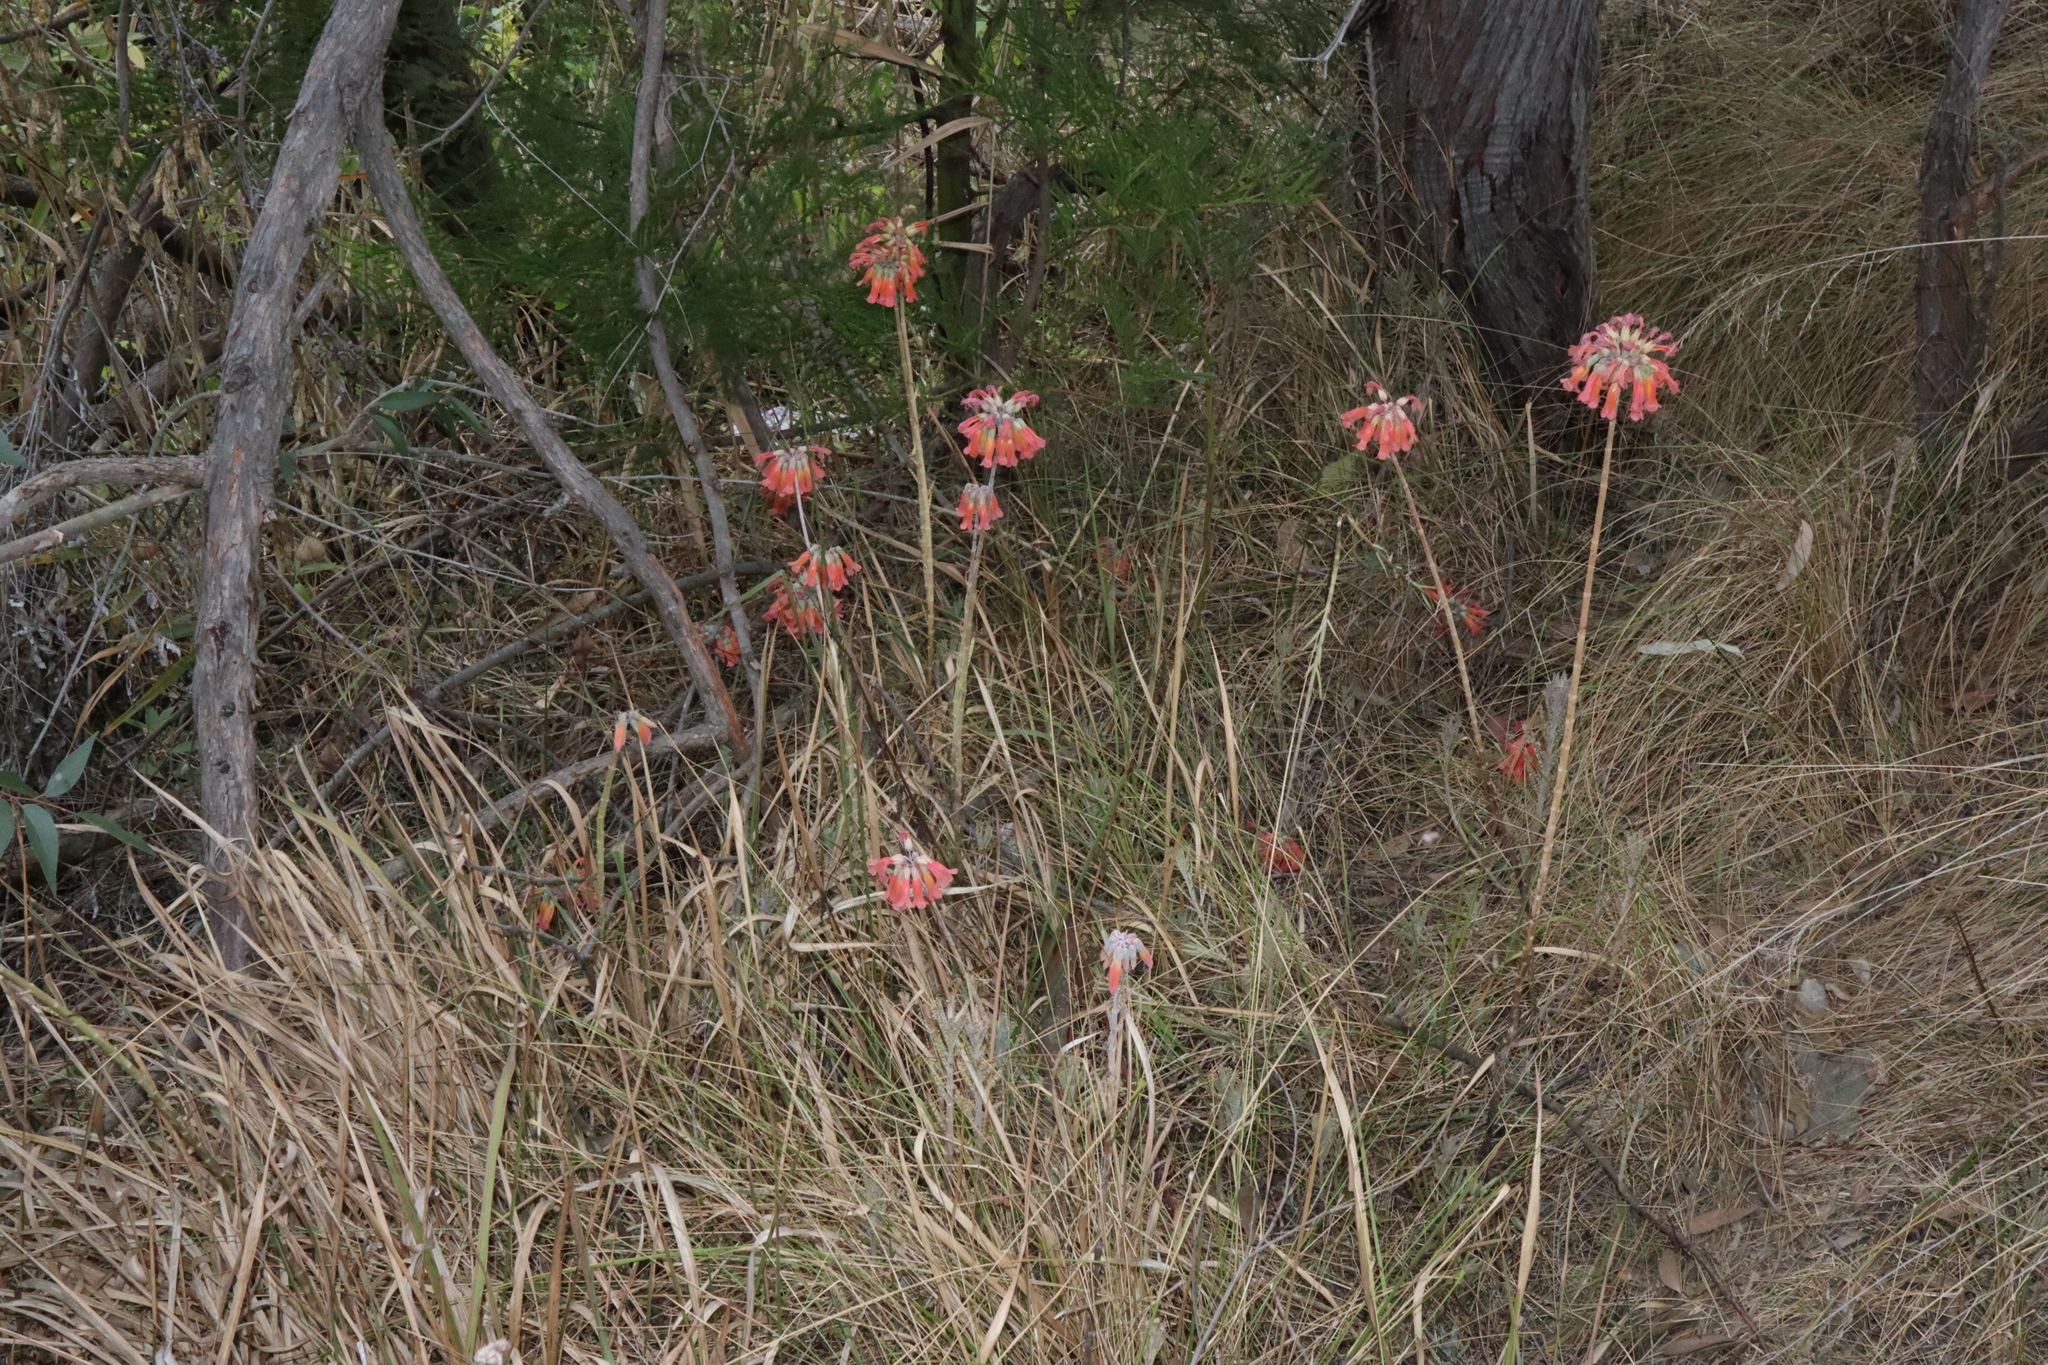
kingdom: Plantae
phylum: Tracheophyta
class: Magnoliopsida
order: Saxifragales
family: Crassulaceae
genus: Kalanchoe
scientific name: Kalanchoe delagoensis
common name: Chandelier plant
